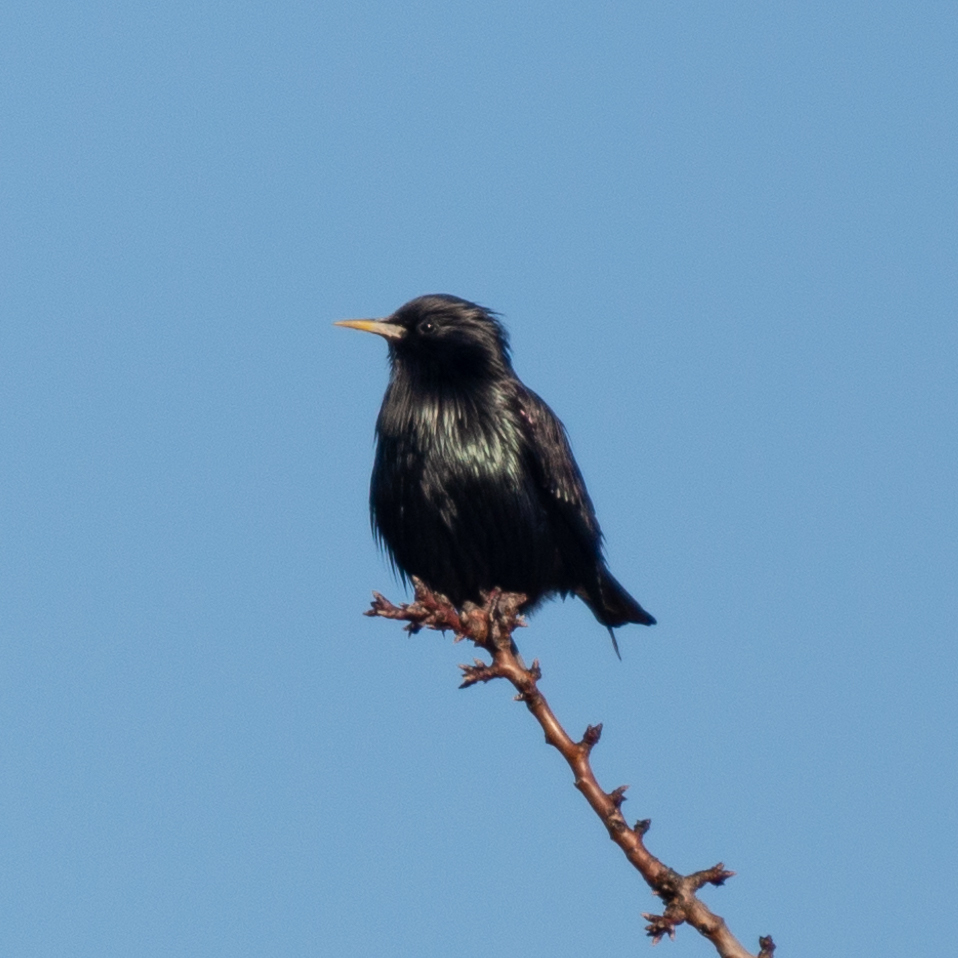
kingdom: Animalia
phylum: Chordata
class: Aves
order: Passeriformes
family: Sturnidae
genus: Sturnus
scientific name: Sturnus unicolor
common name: Spotless starling
